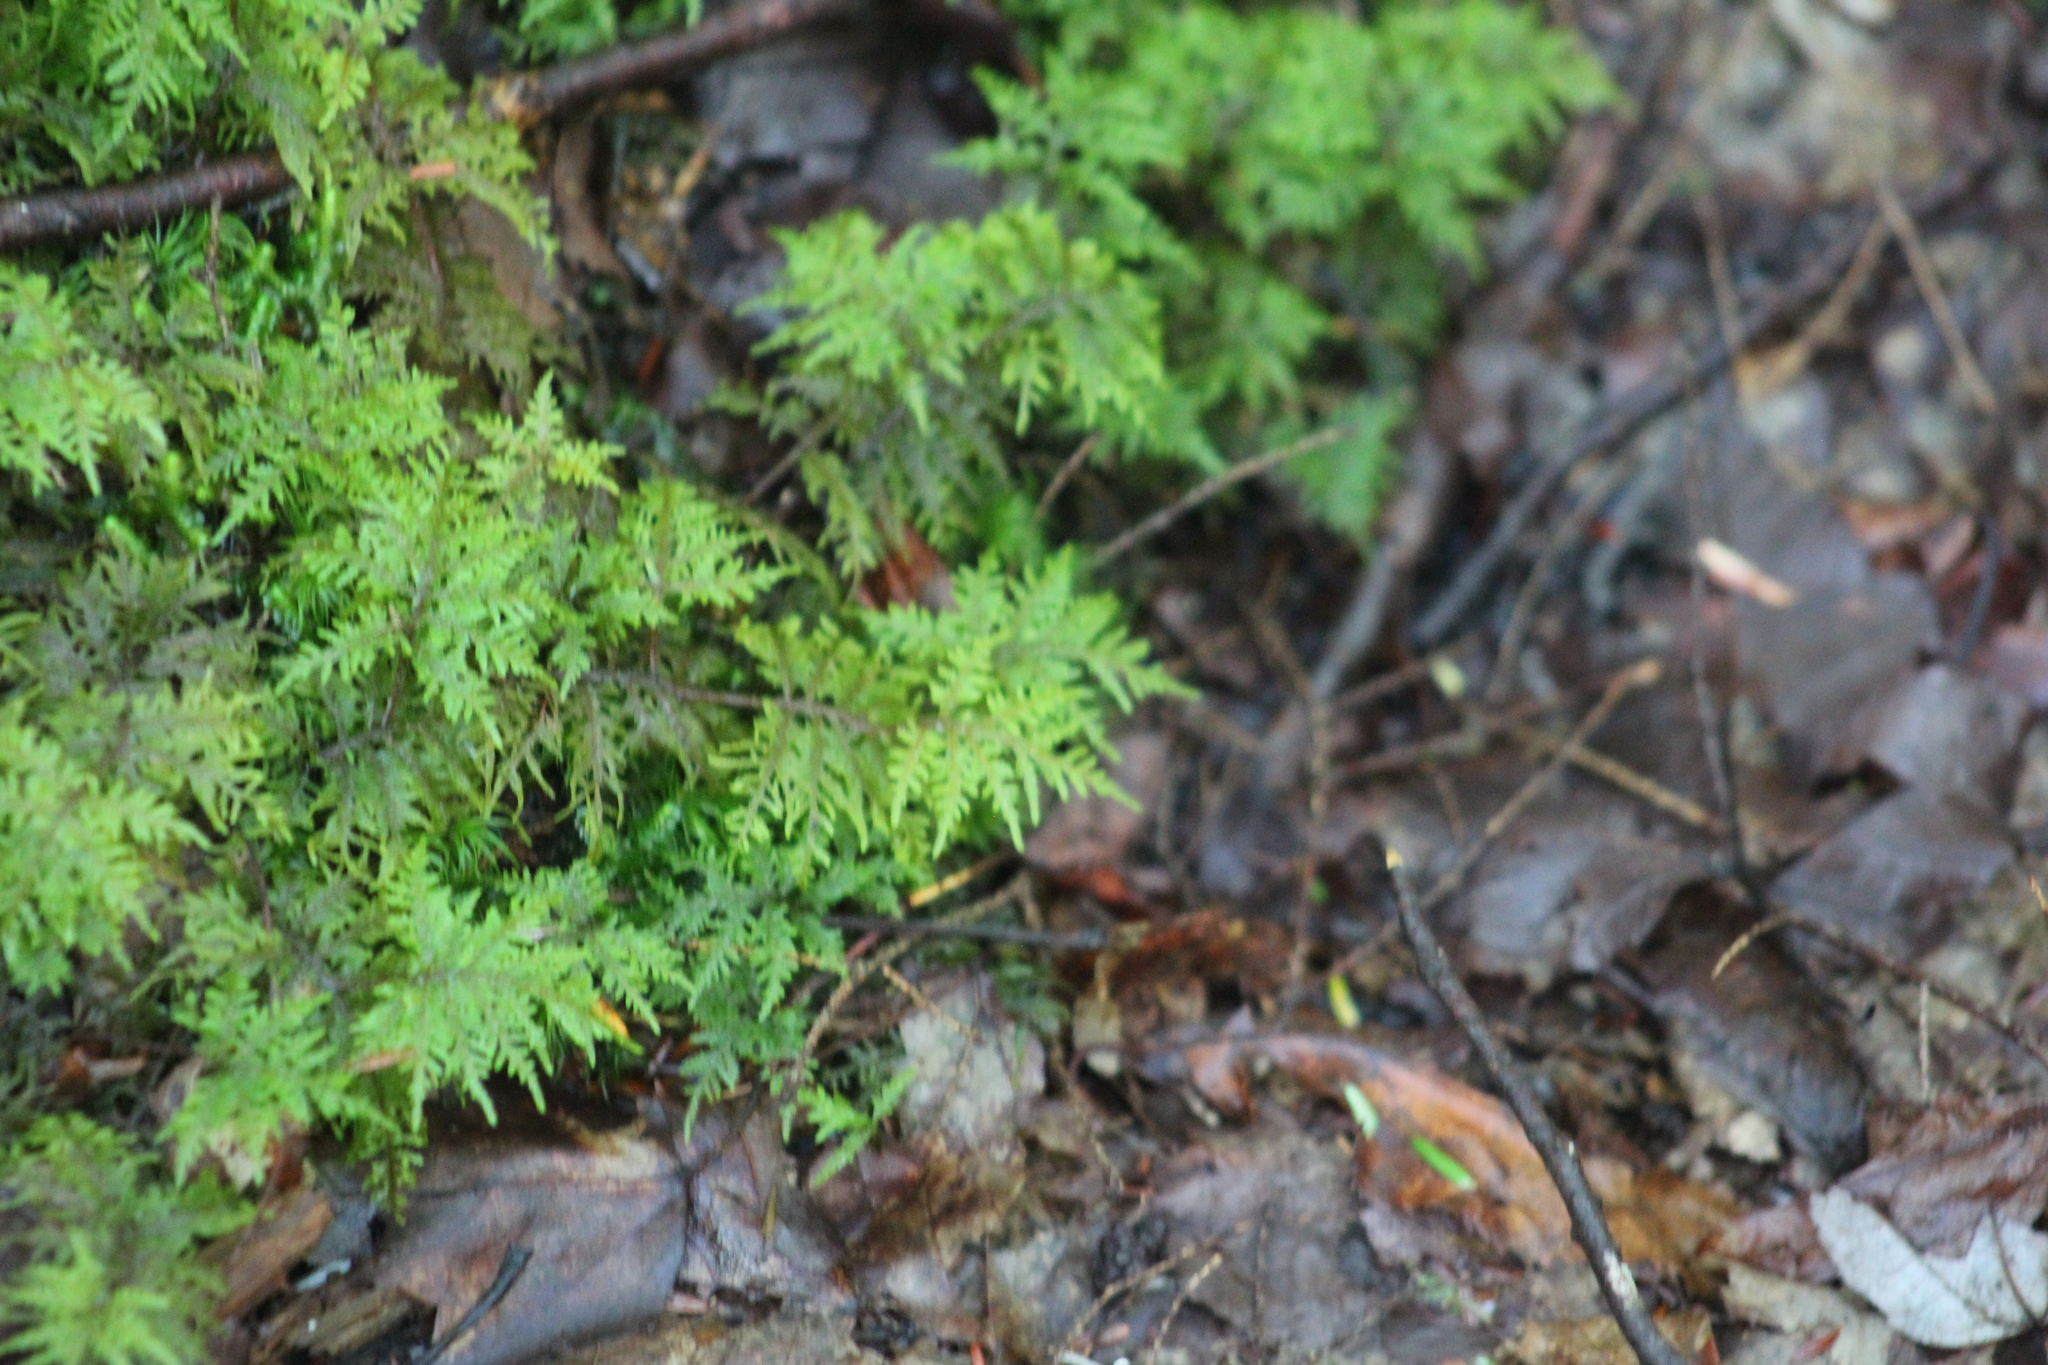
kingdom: Plantae
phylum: Bryophyta
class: Bryopsida
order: Hypnales
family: Hylocomiaceae
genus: Hylocomium
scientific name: Hylocomium splendens
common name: Stairstep moss
